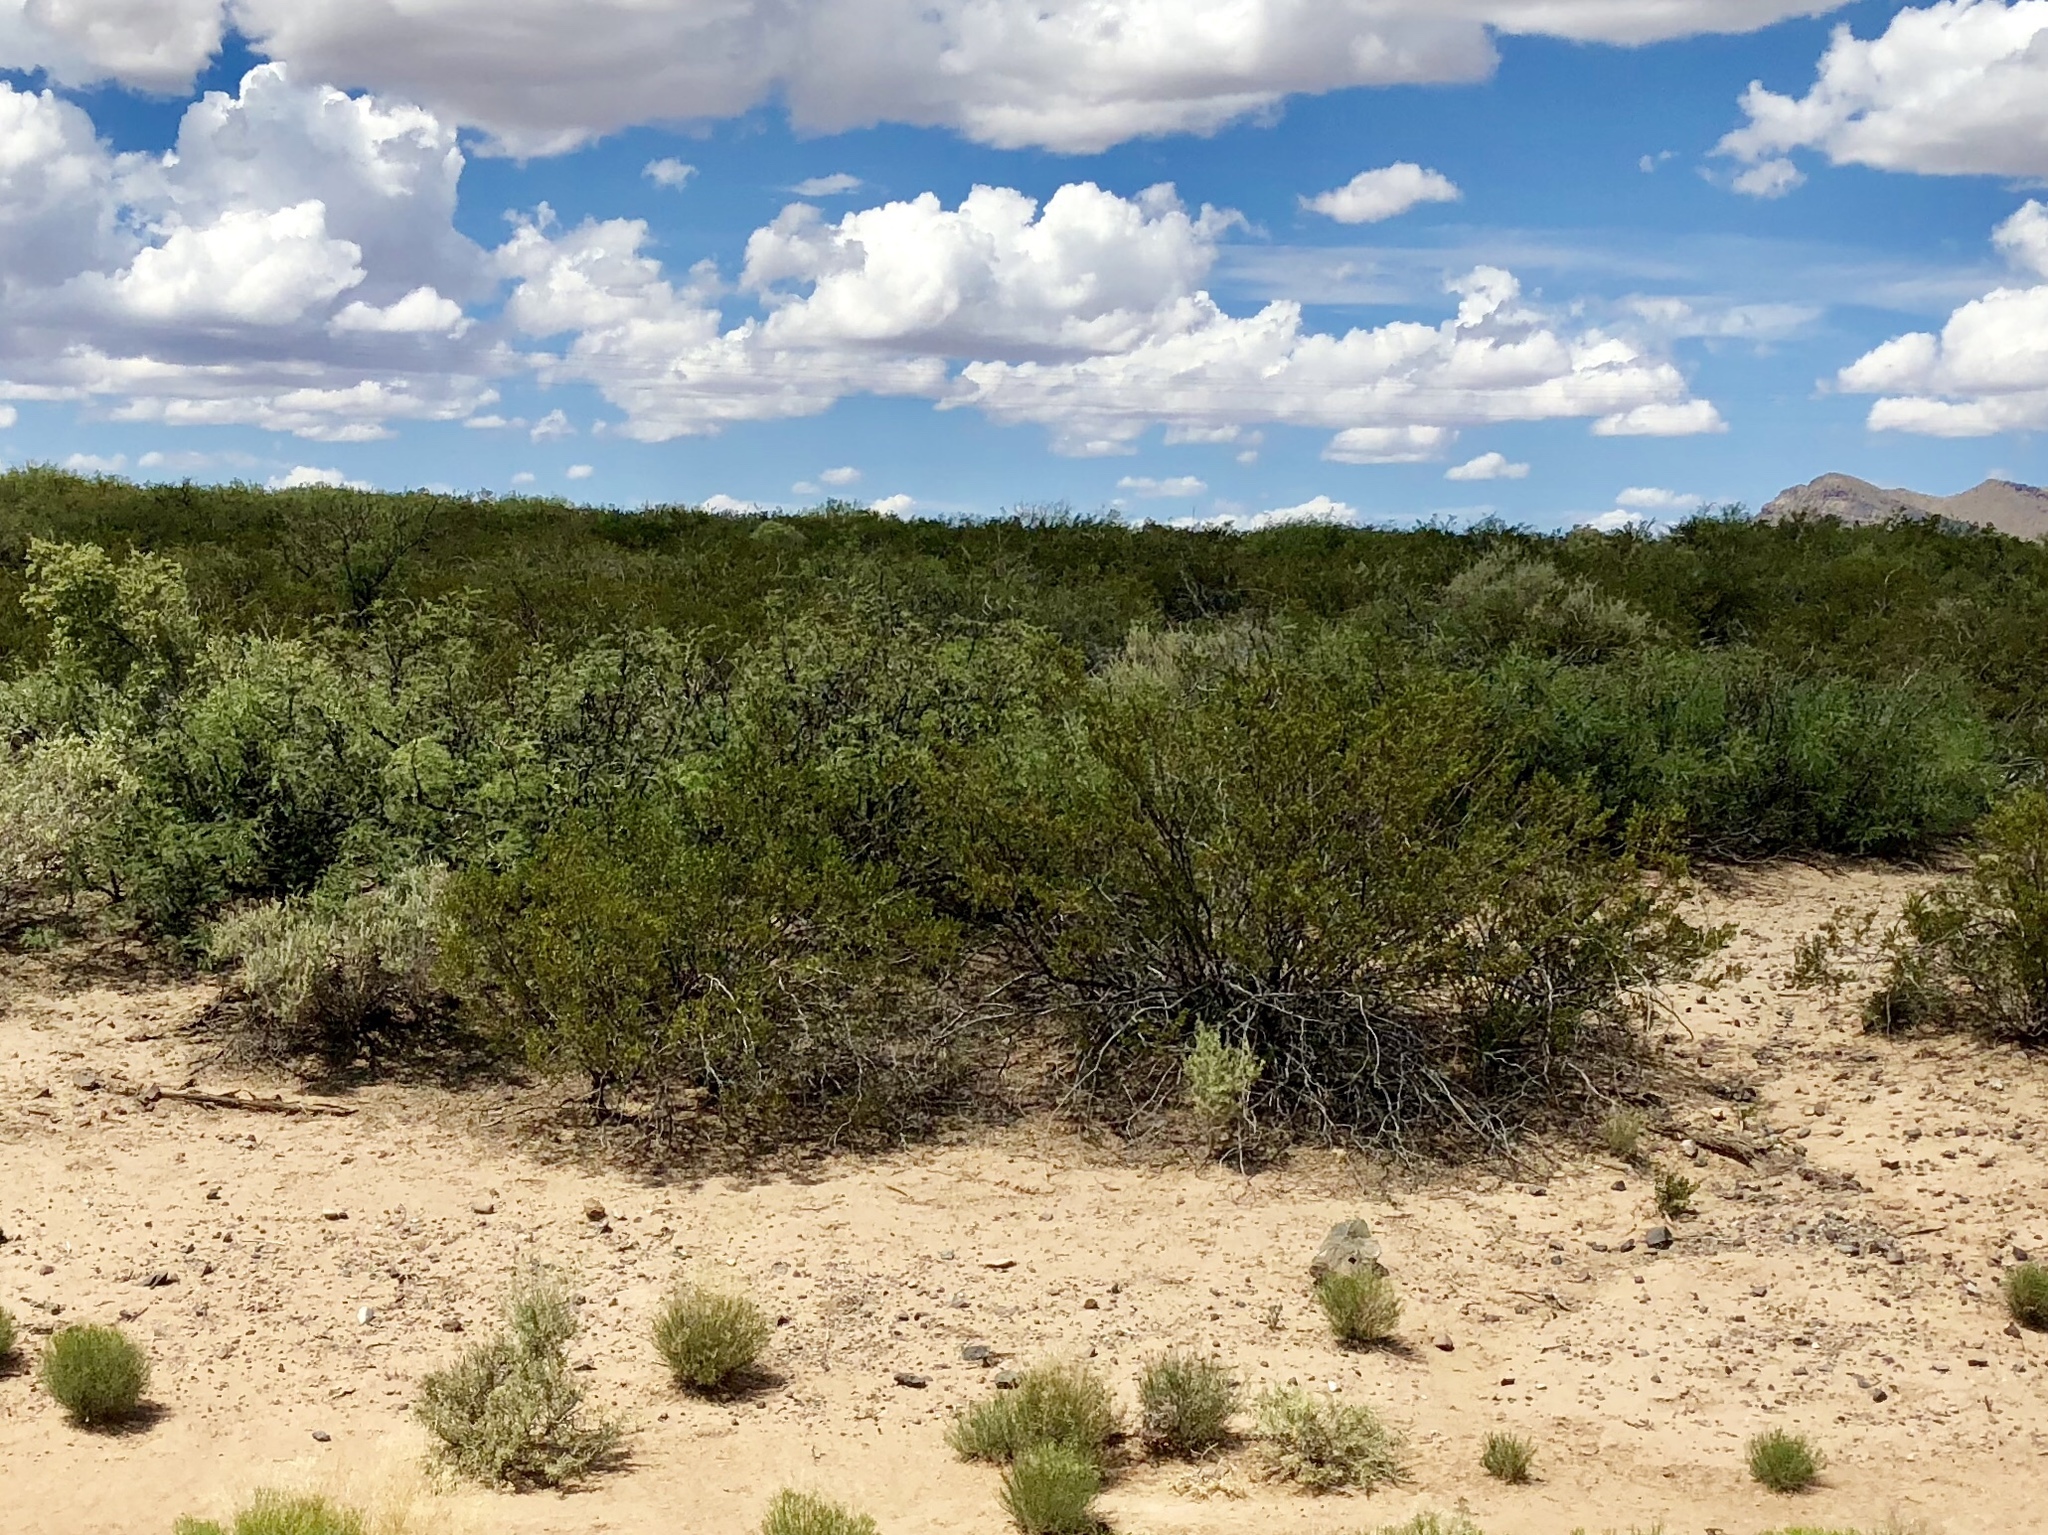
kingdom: Plantae
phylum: Tracheophyta
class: Magnoliopsida
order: Zygophyllales
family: Zygophyllaceae
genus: Larrea
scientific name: Larrea tridentata
